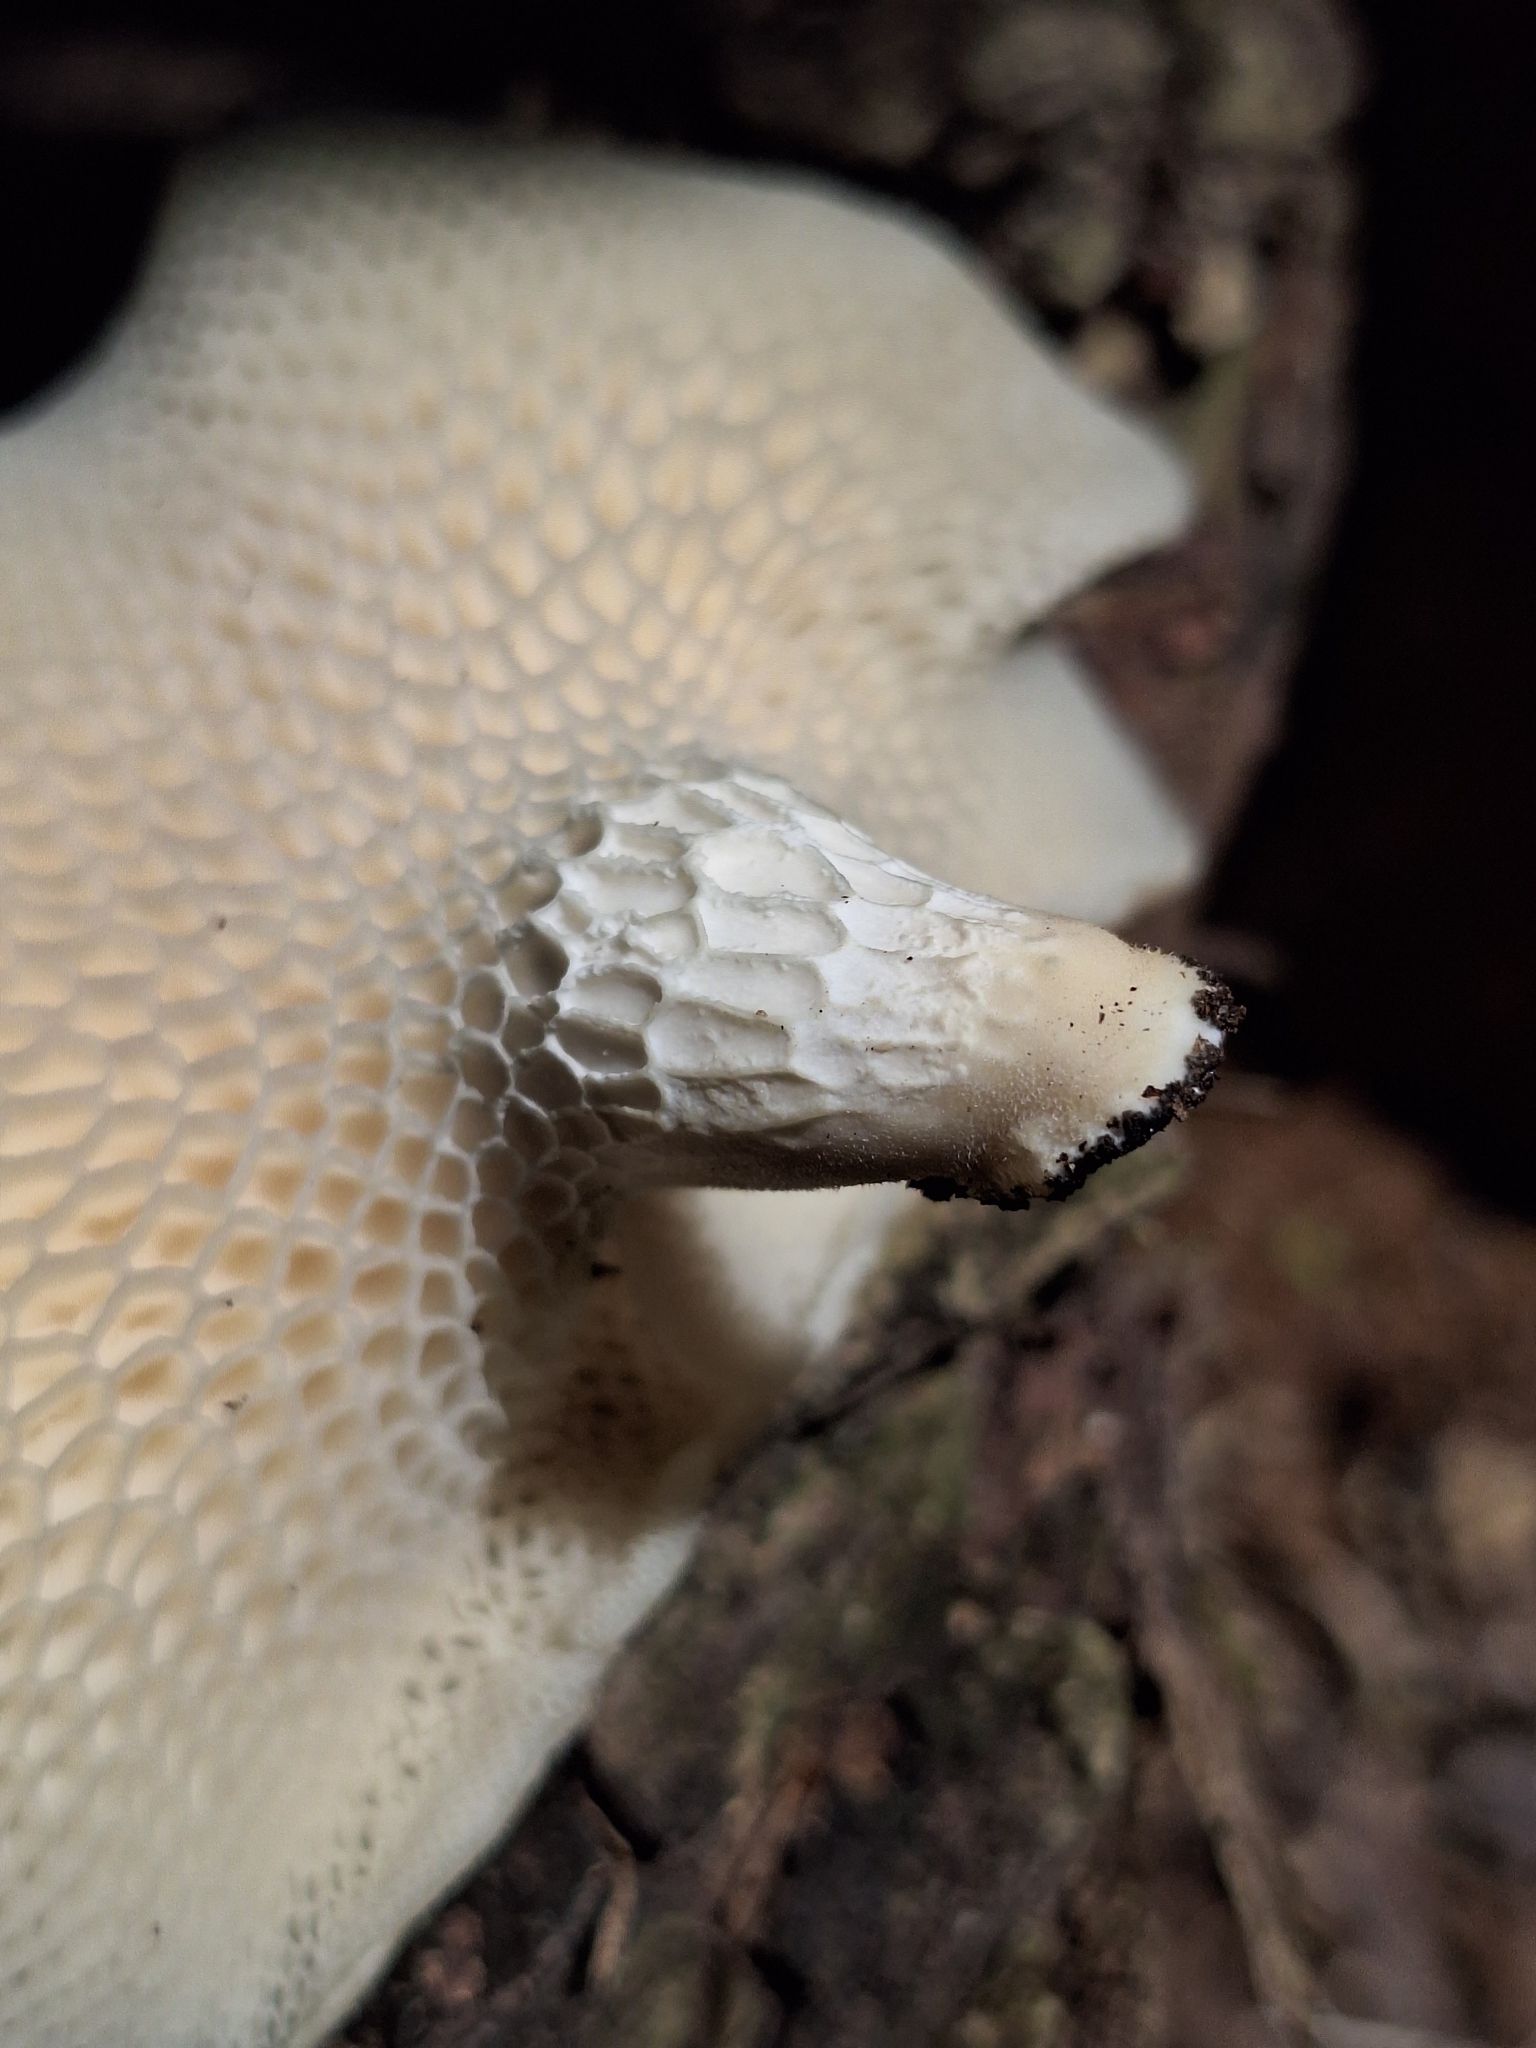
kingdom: Fungi
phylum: Basidiomycota
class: Agaricomycetes
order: Polyporales
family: Polyporaceae
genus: Favolus
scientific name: Favolus rugulosus
